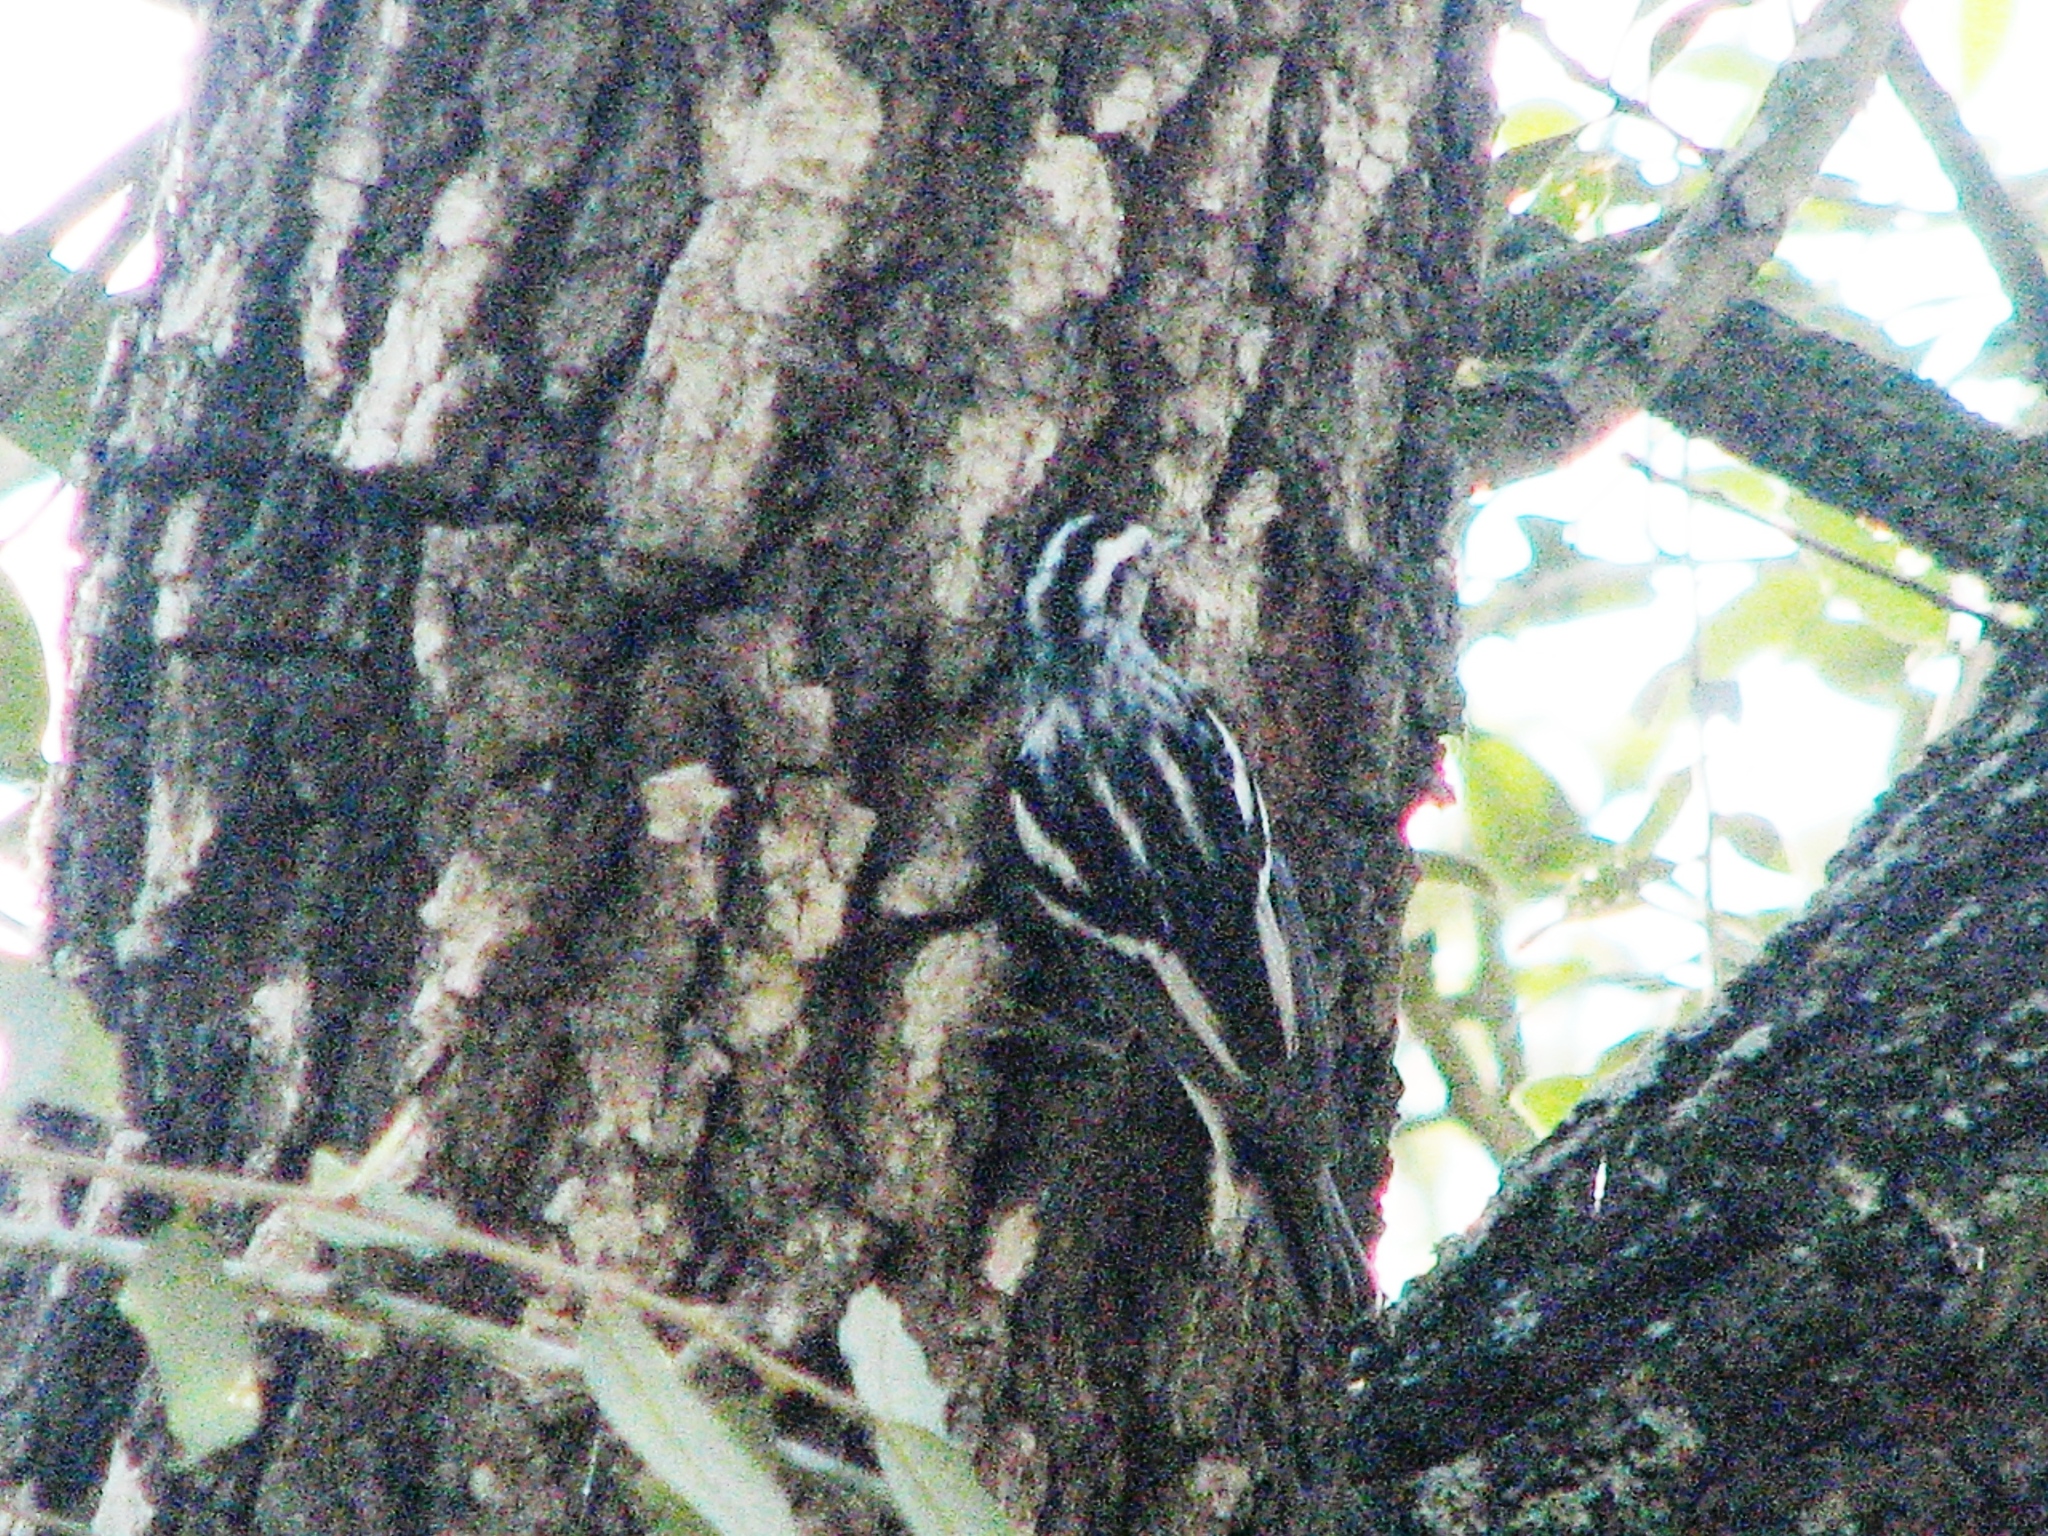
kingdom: Animalia
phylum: Chordata
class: Aves
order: Passeriformes
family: Parulidae
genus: Mniotilta
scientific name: Mniotilta varia
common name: Black-and-white warbler
